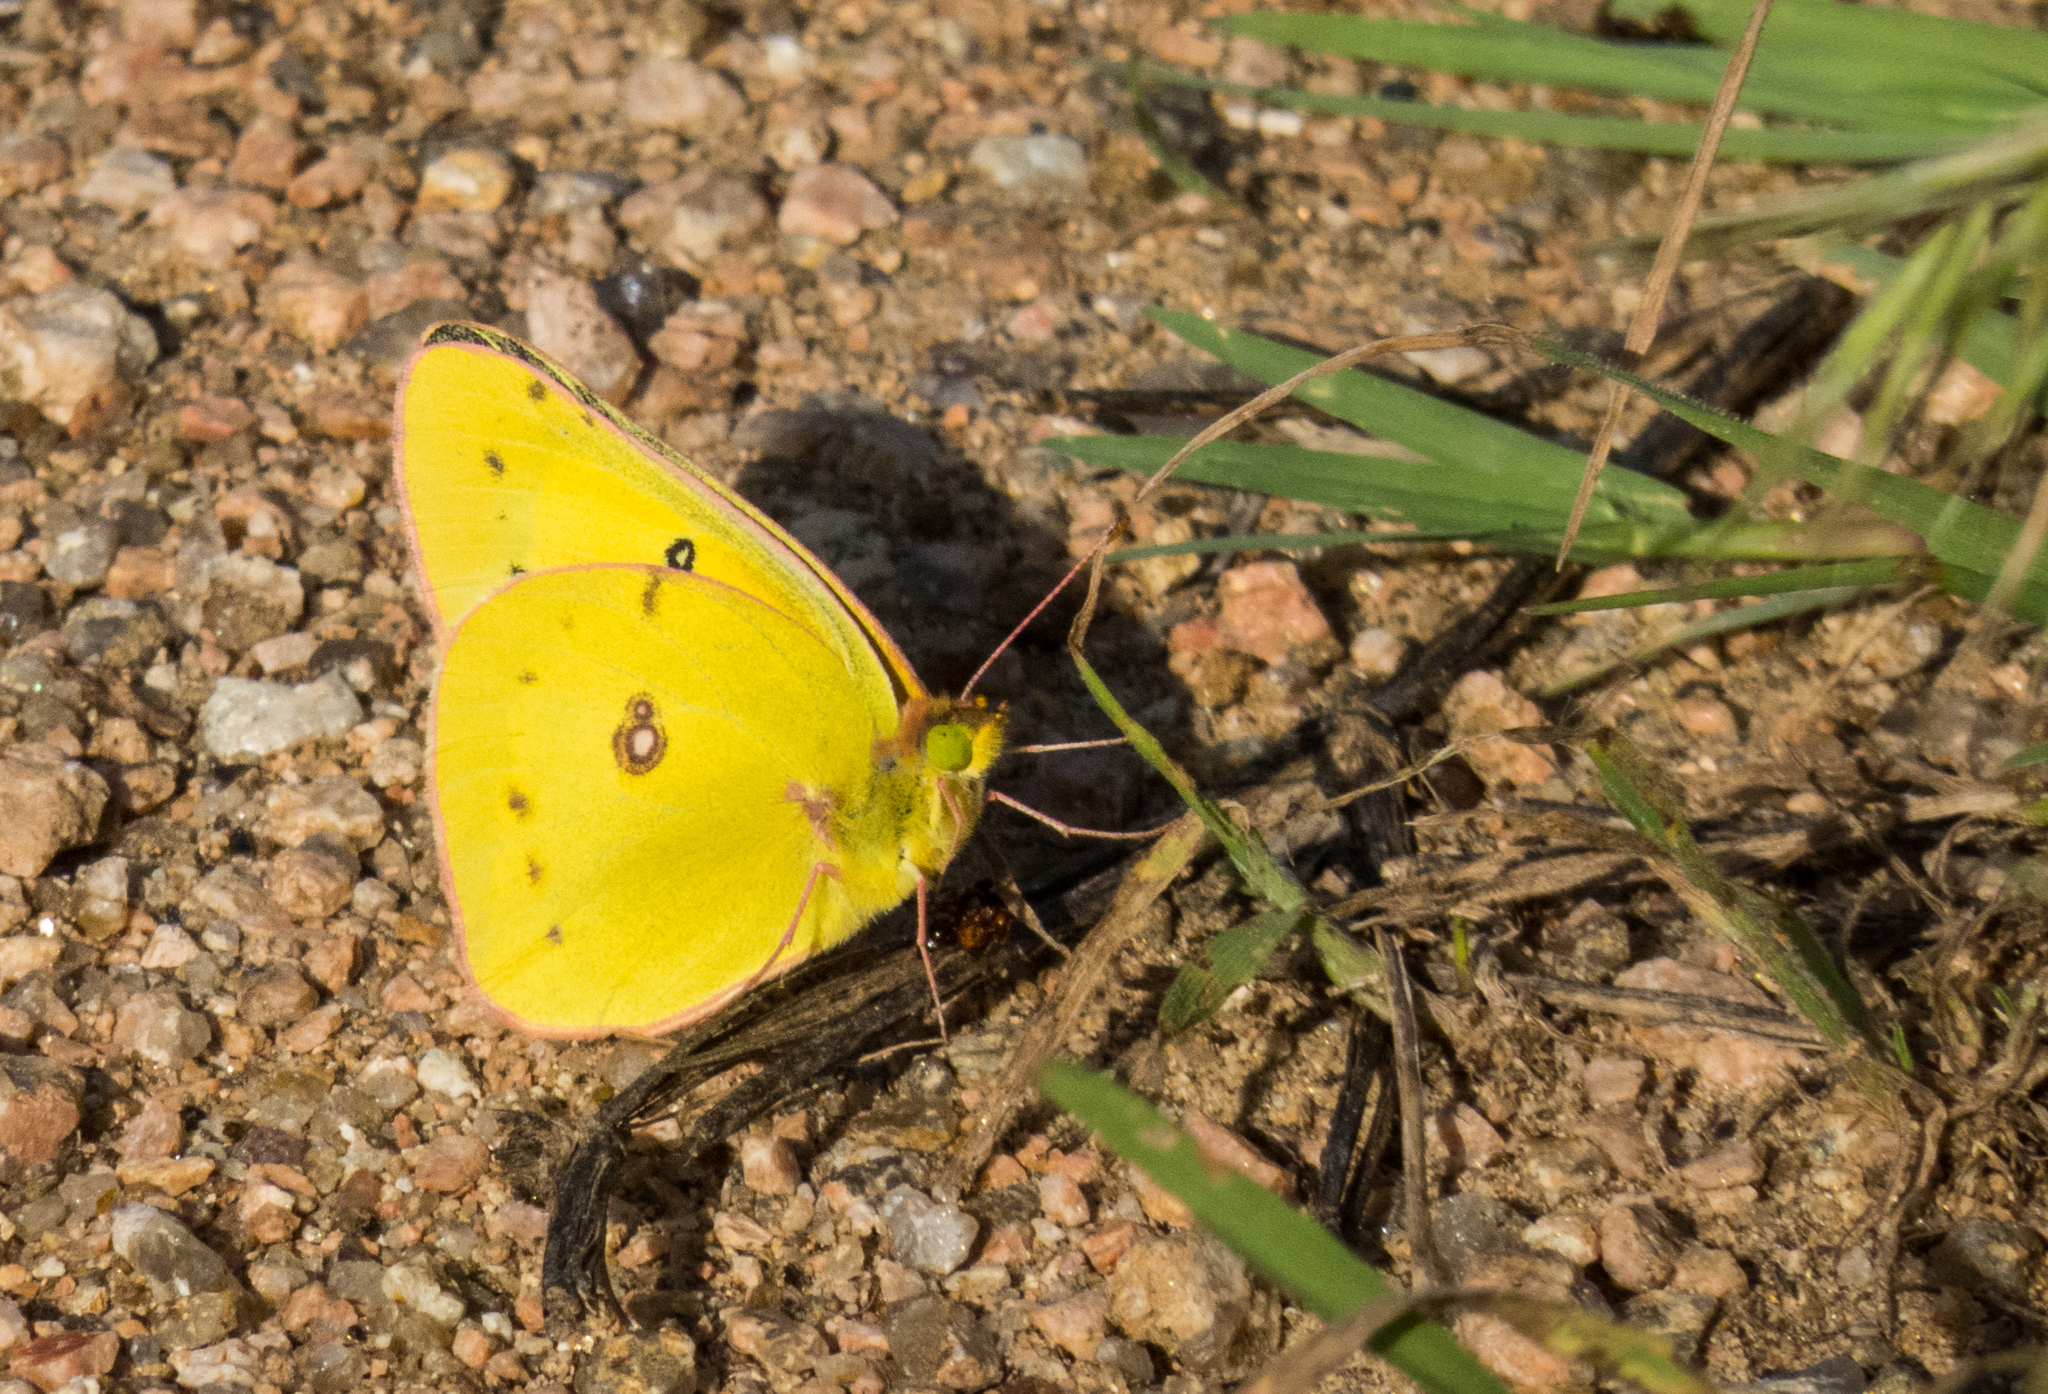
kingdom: Animalia
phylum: Arthropoda
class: Insecta
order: Lepidoptera
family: Pieridae
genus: Colias
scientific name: Colias eurytheme
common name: Alfalfa butterfly
